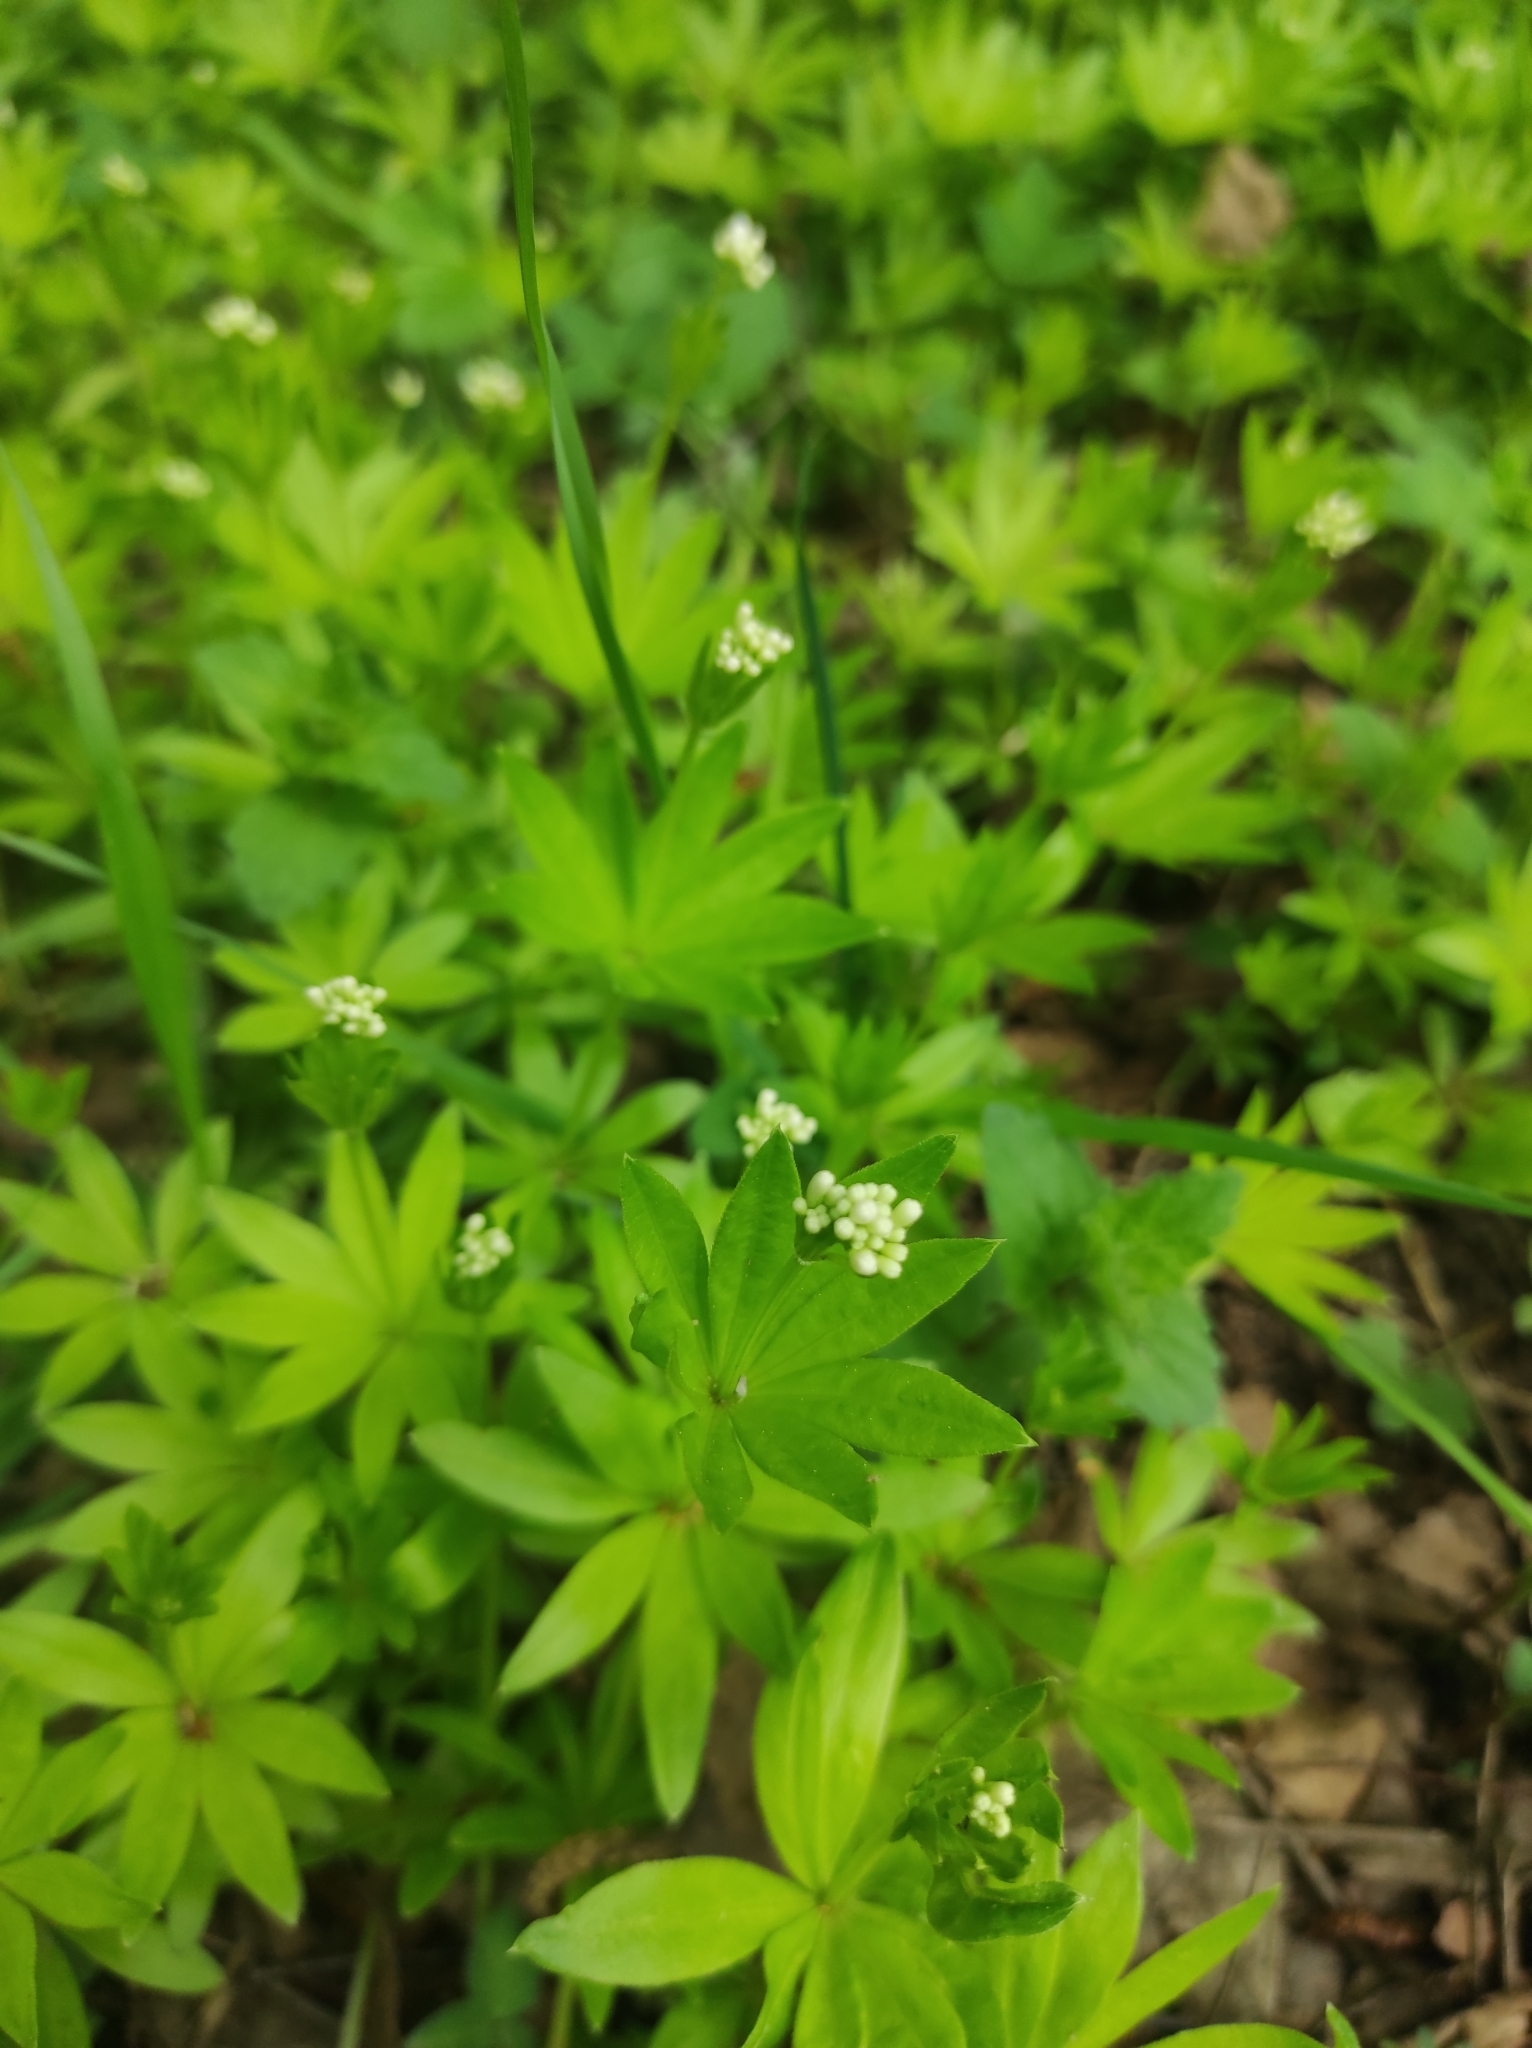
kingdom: Plantae
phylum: Tracheophyta
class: Magnoliopsida
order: Gentianales
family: Rubiaceae
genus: Galium
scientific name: Galium odoratum
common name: Sweet woodruff
